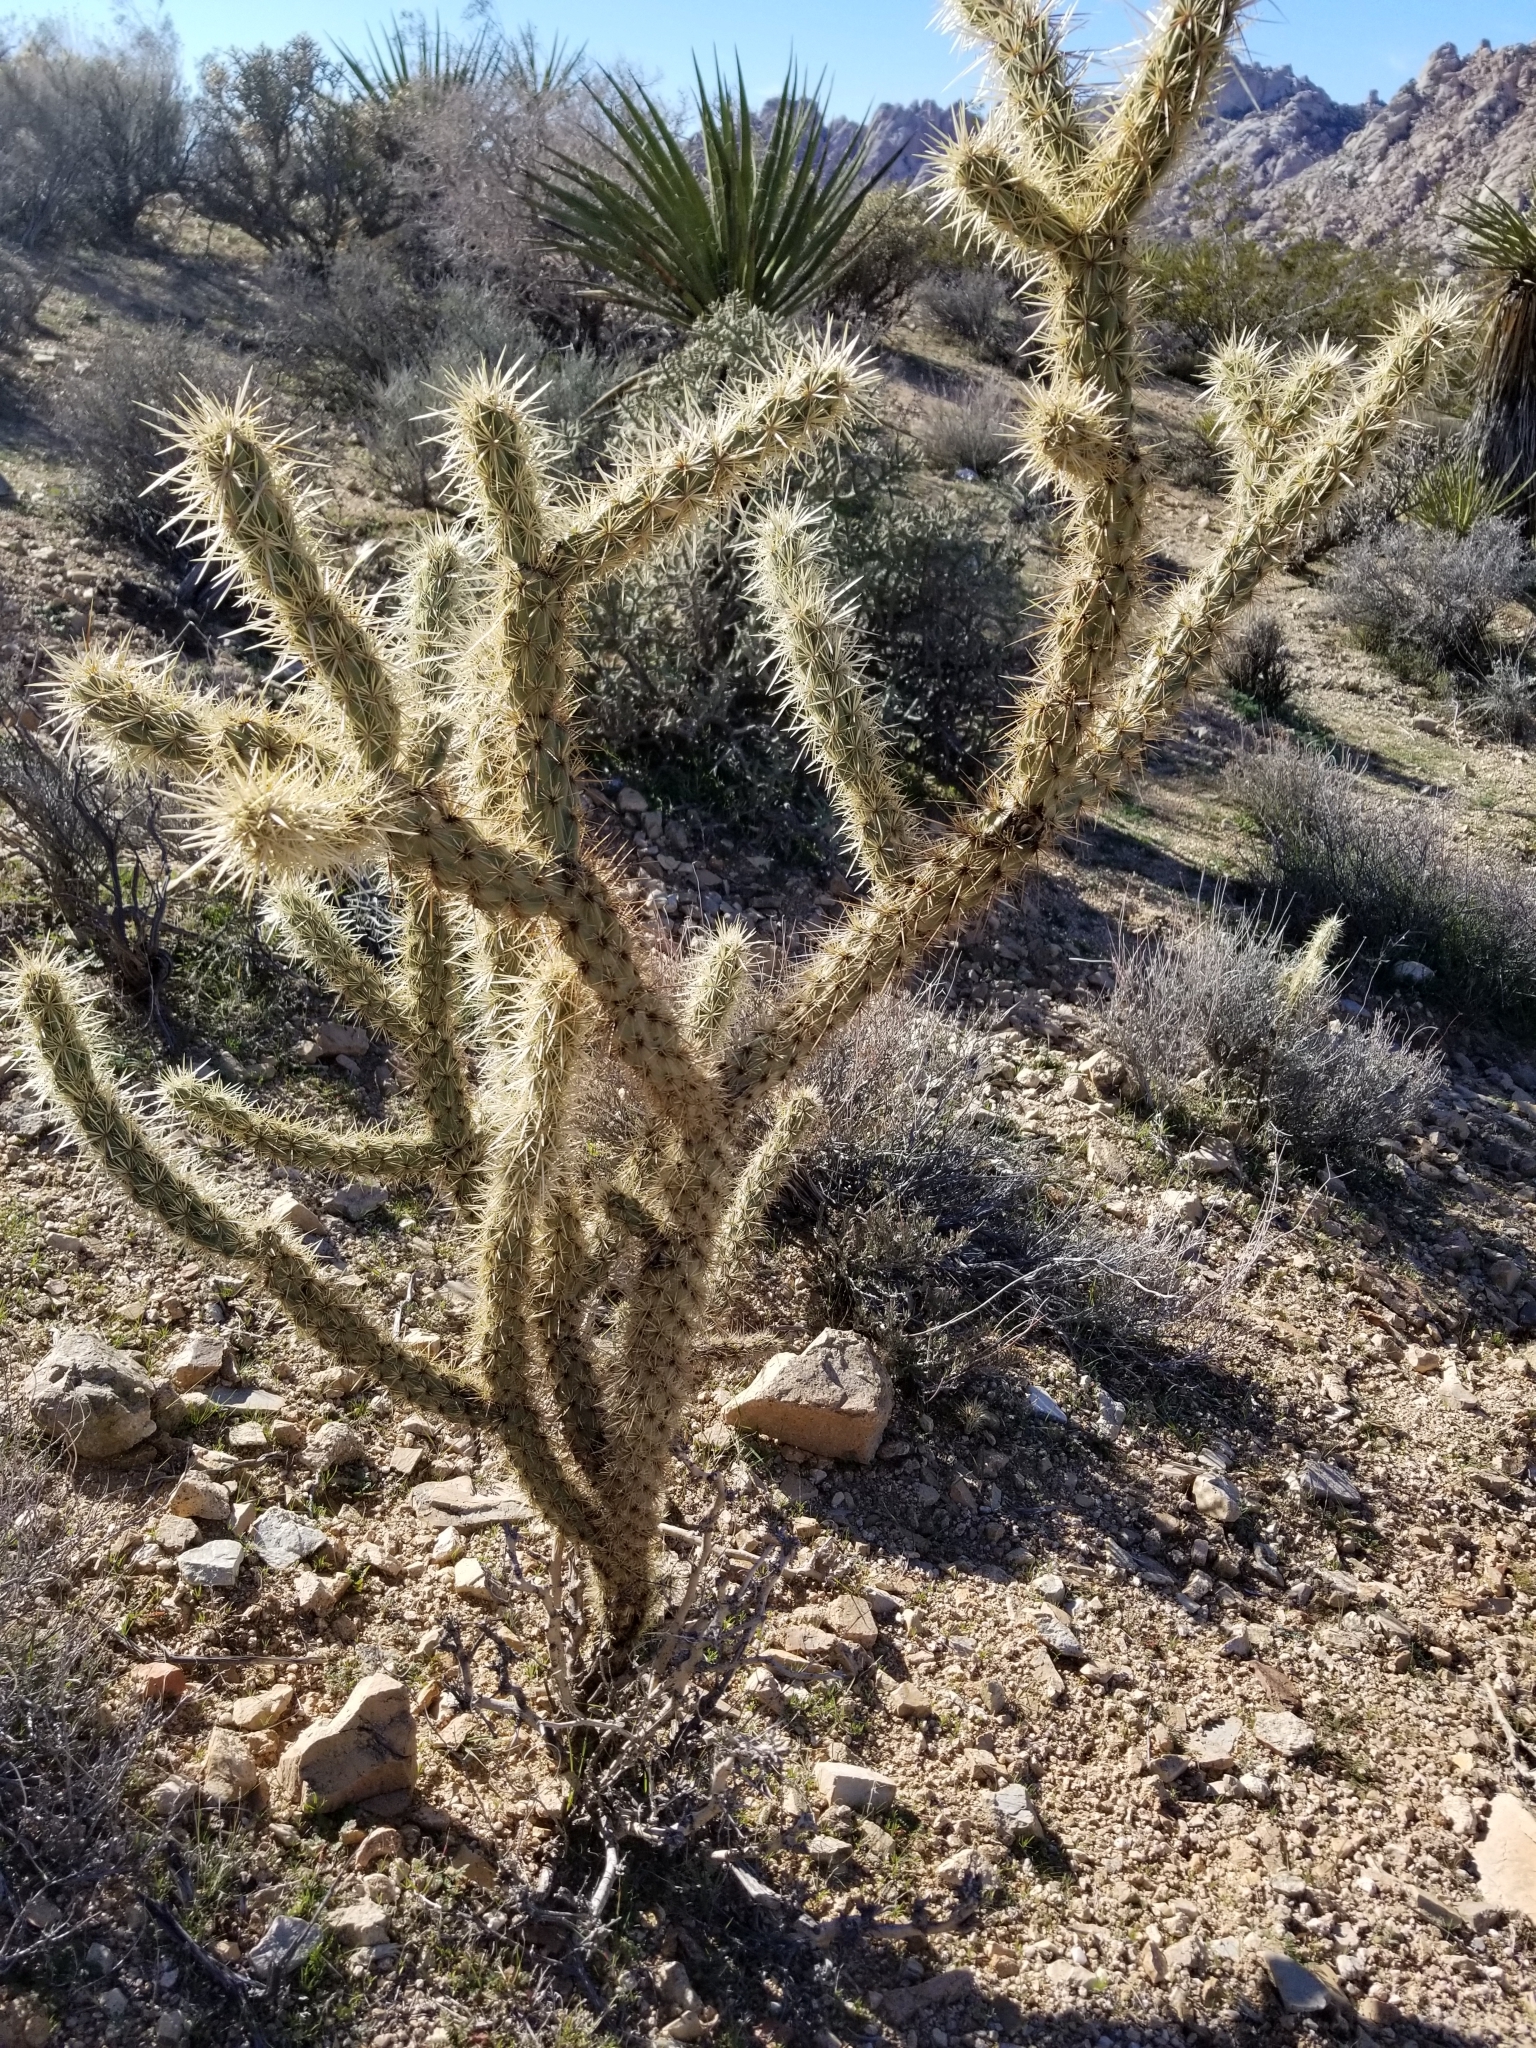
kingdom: Plantae
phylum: Tracheophyta
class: Magnoliopsida
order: Caryophyllales
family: Cactaceae
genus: Cylindropuntia
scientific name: Cylindropuntia acanthocarpa
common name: Buckhorn cholla
